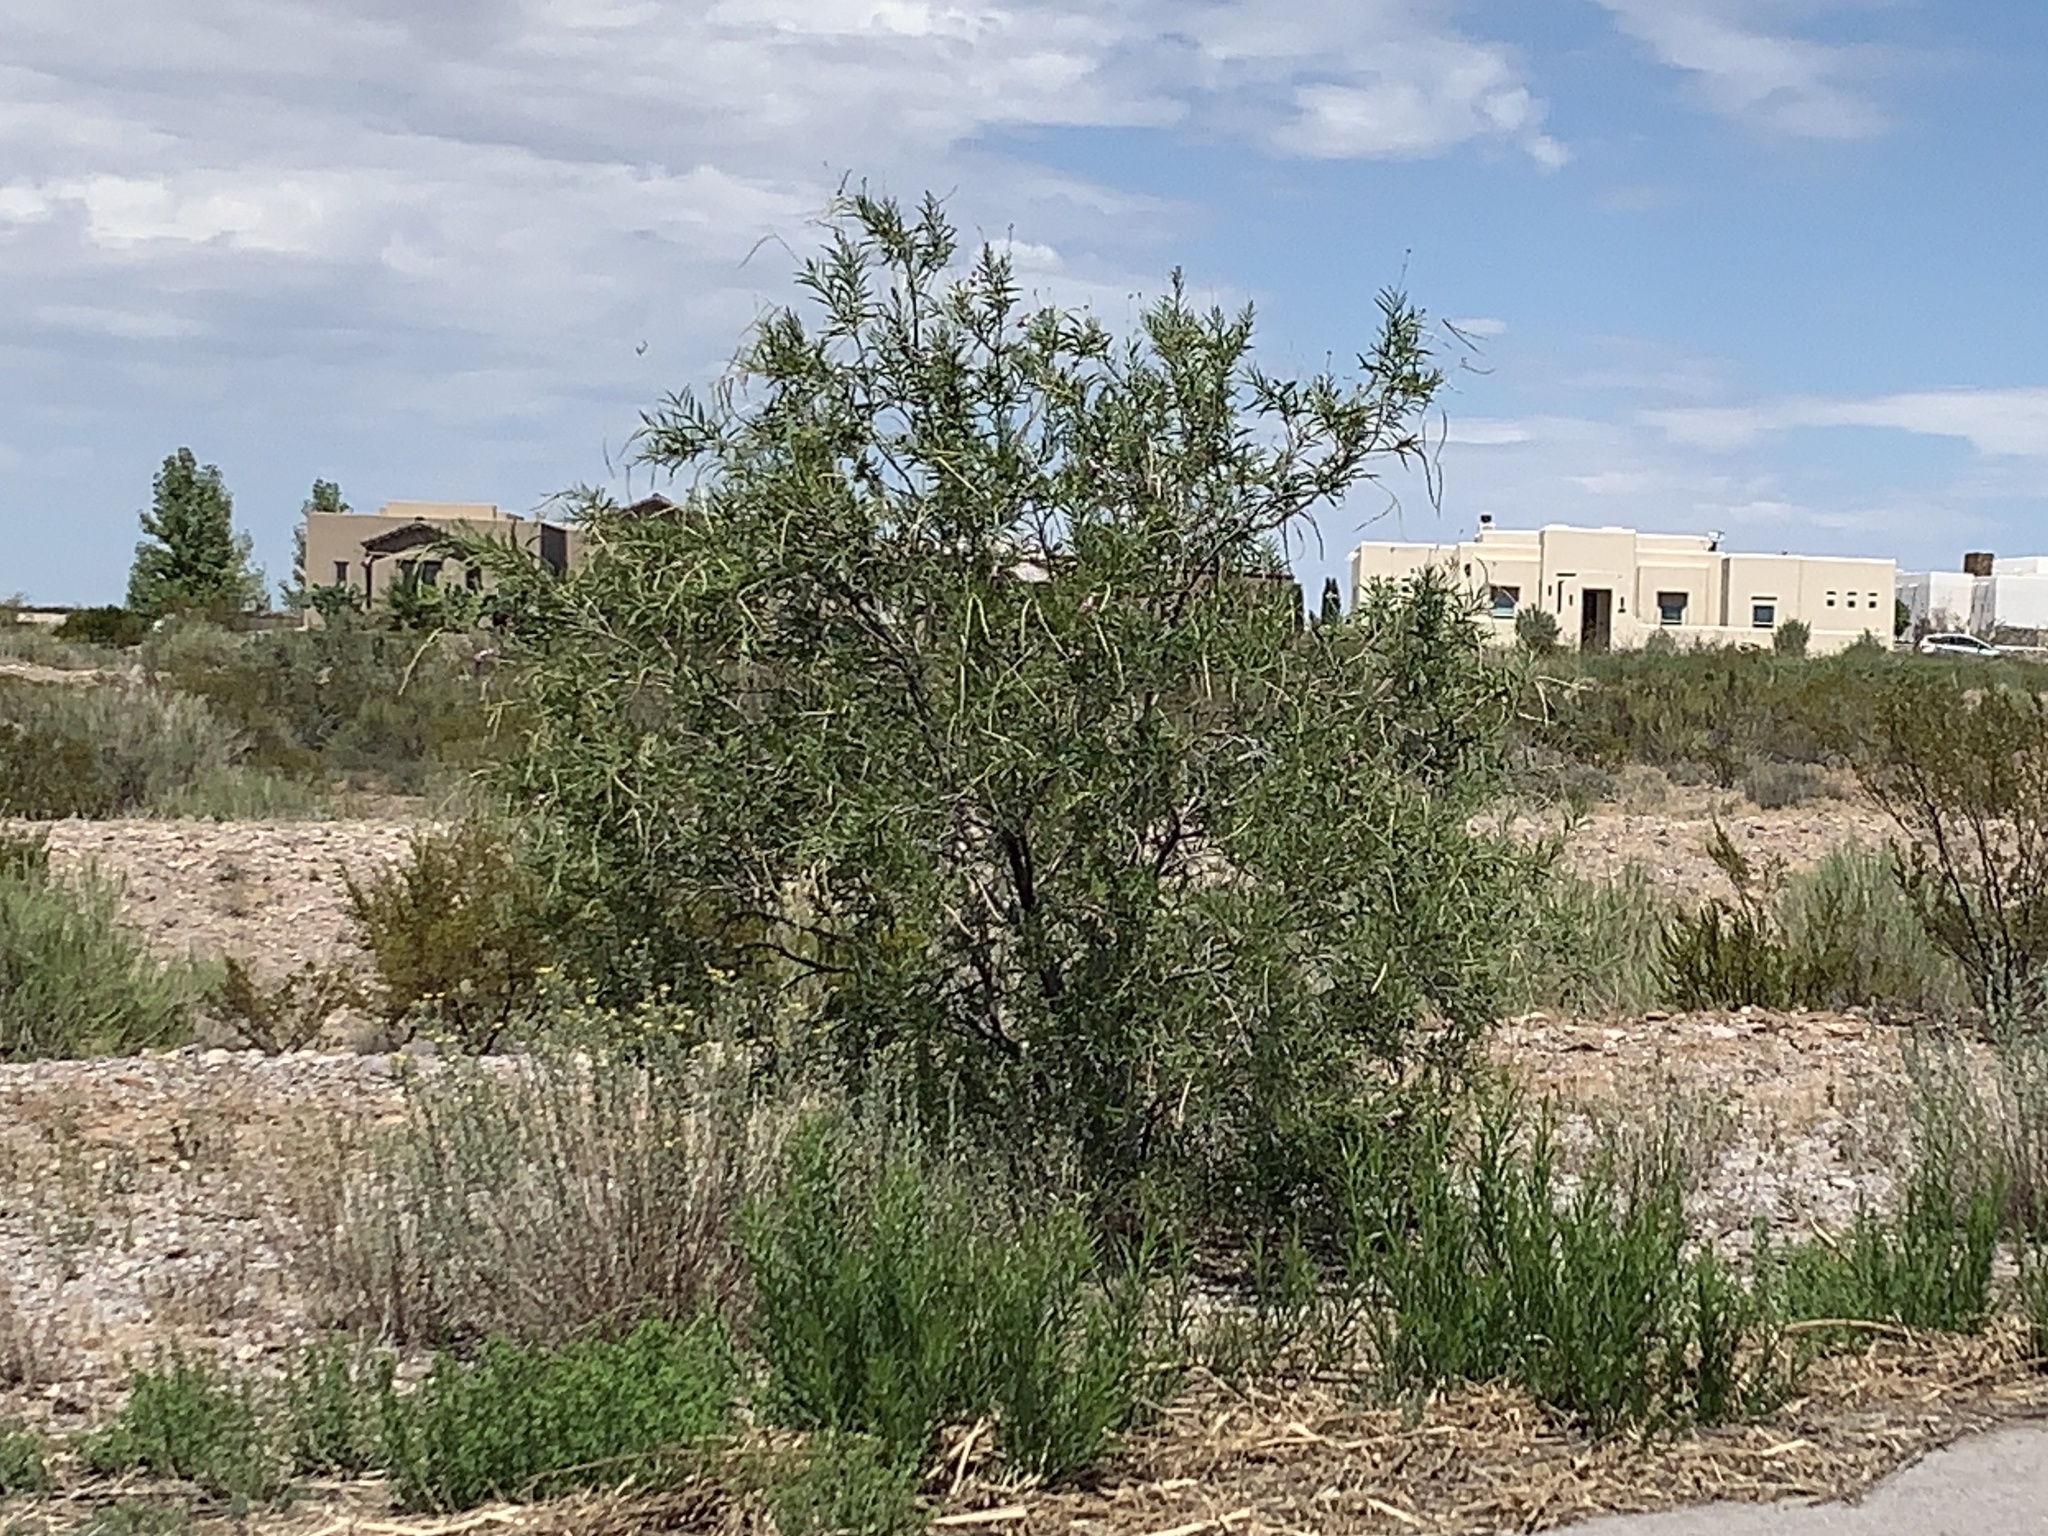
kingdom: Plantae
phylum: Tracheophyta
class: Magnoliopsida
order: Lamiales
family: Bignoniaceae
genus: Chilopsis
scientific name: Chilopsis linearis
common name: Desert-willow
